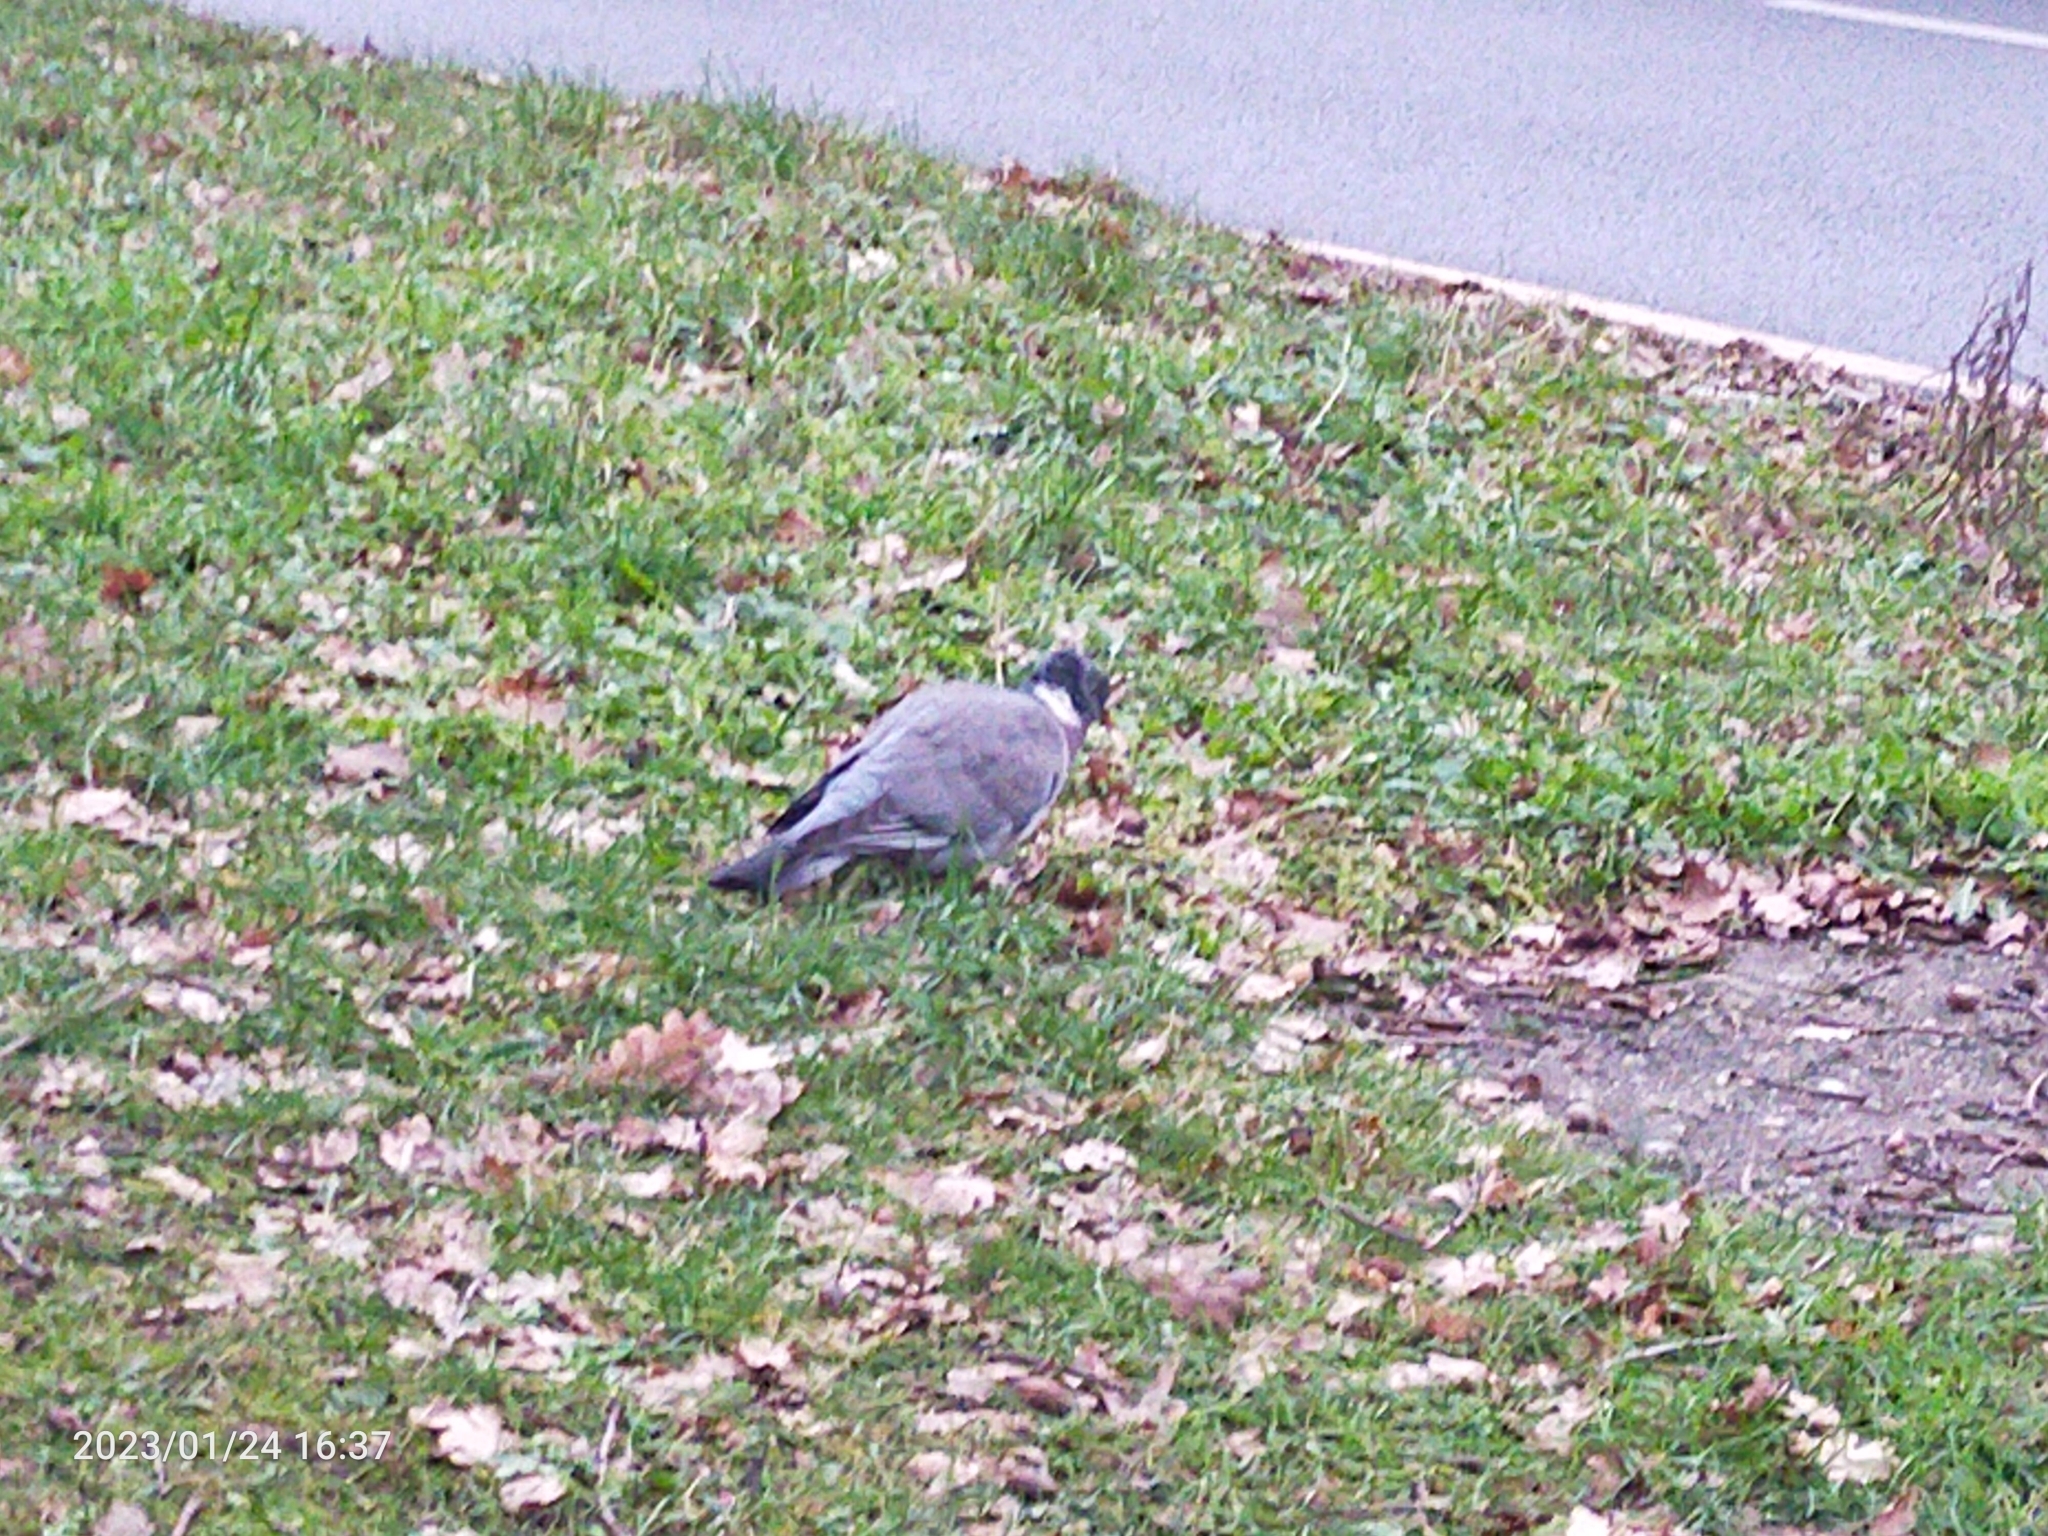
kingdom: Animalia
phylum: Chordata
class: Aves
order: Columbiformes
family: Columbidae
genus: Columba
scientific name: Columba palumbus
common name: Common wood pigeon
